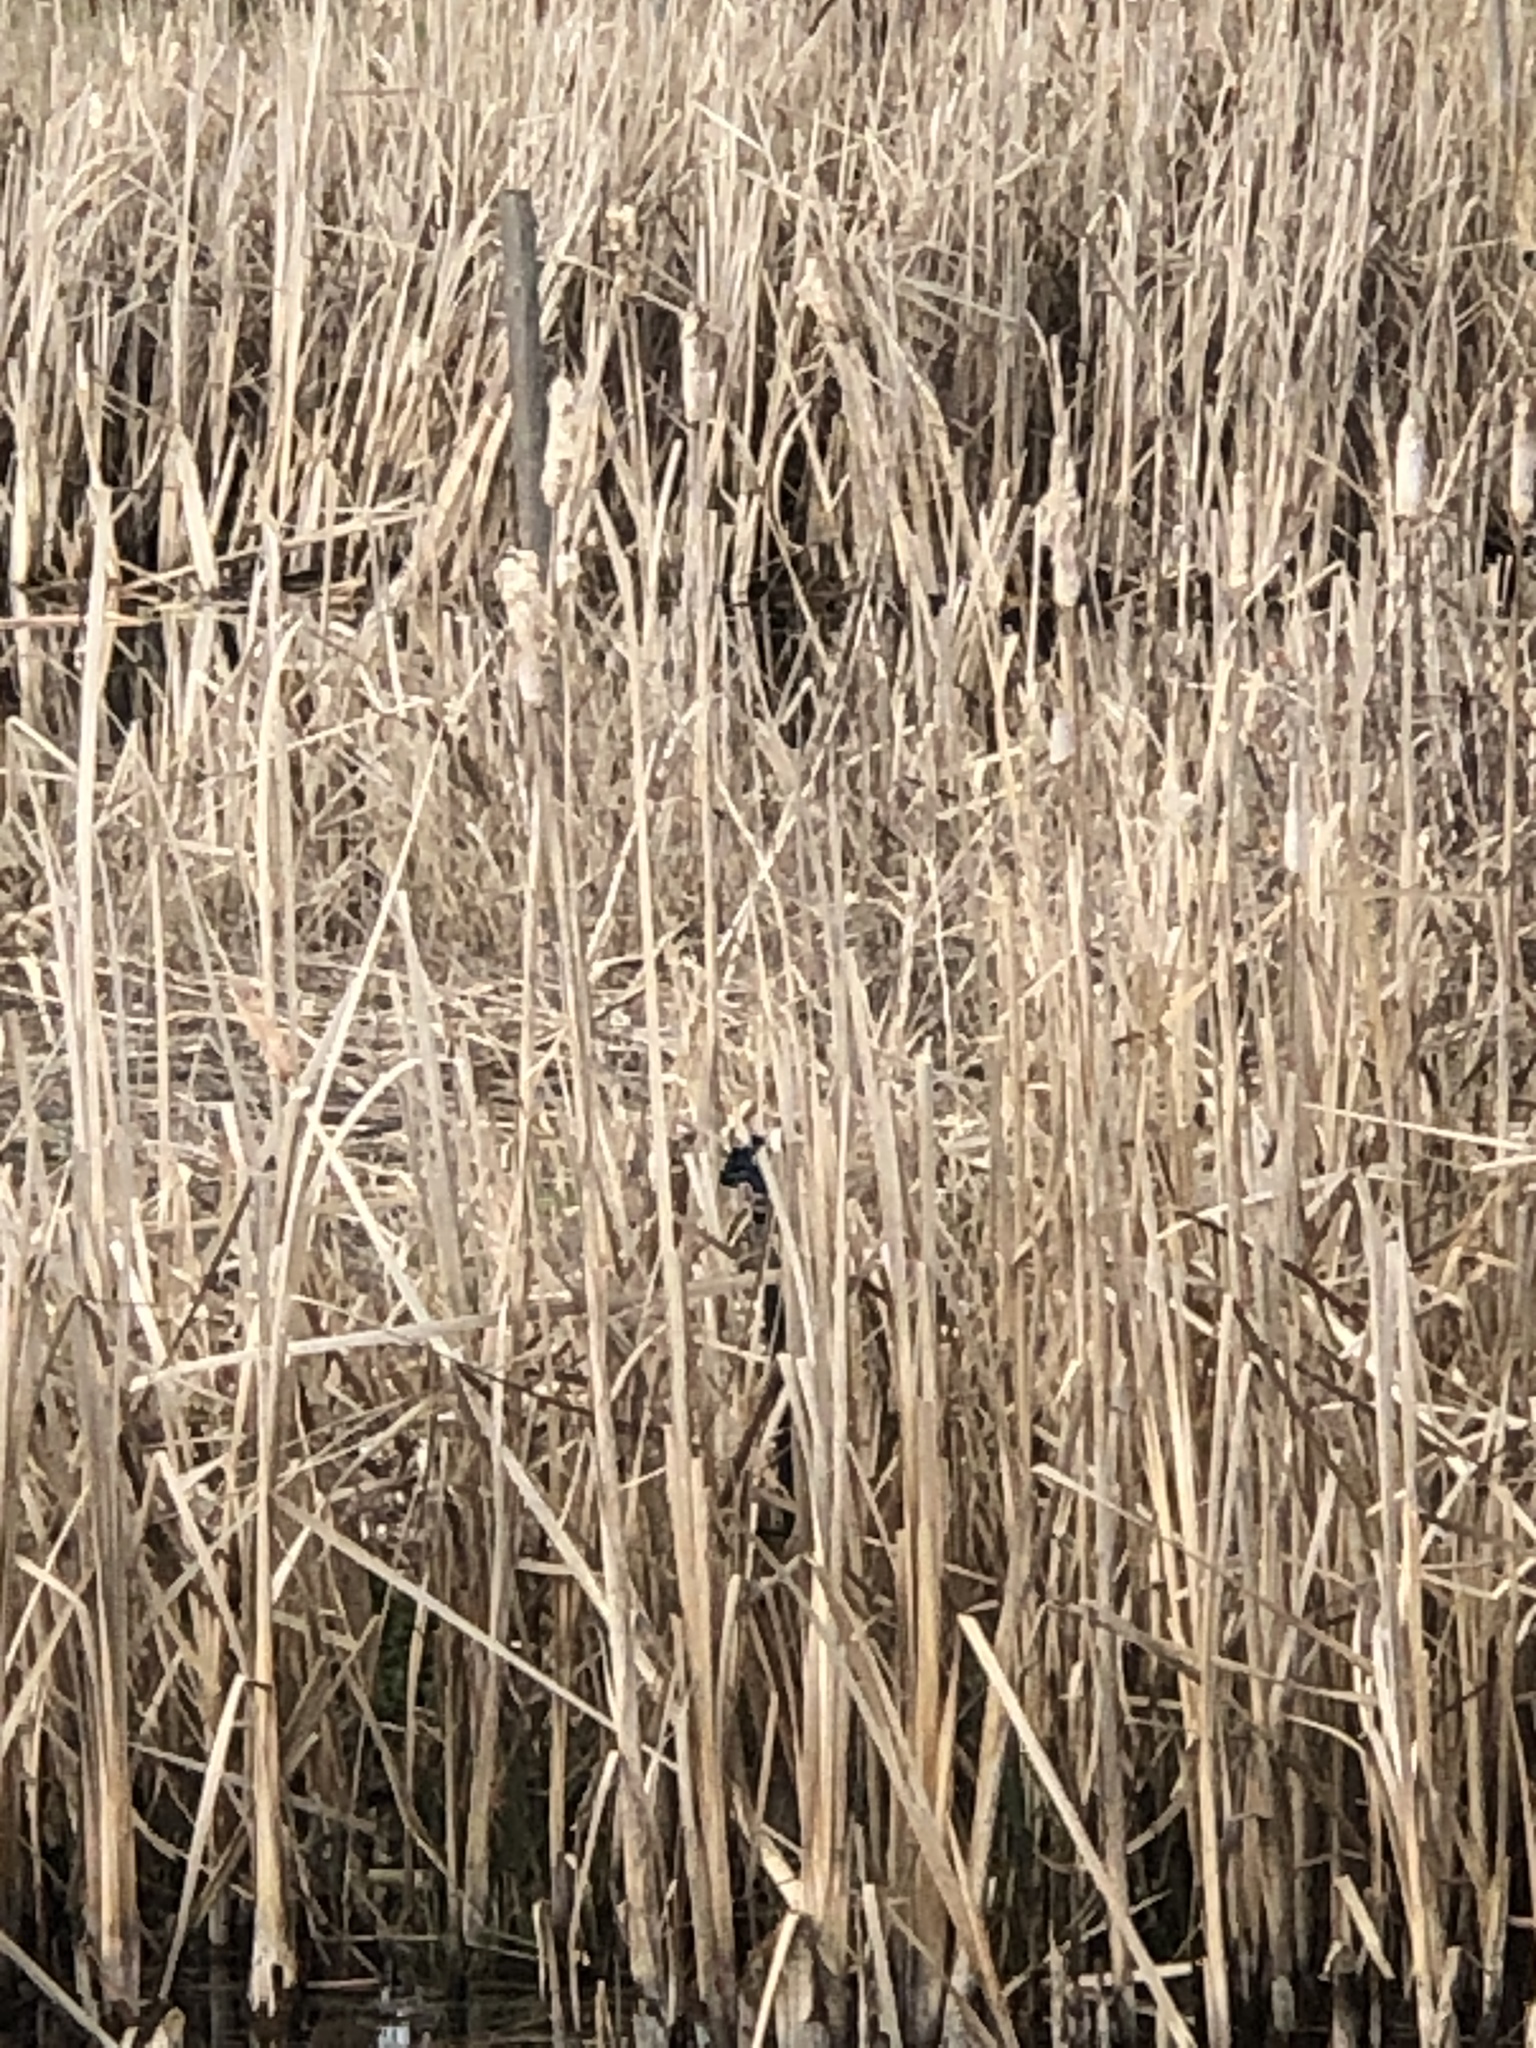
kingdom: Animalia
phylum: Chordata
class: Aves
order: Passeriformes
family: Icteridae
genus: Agelaius
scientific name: Agelaius phoeniceus
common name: Red-winged blackbird
